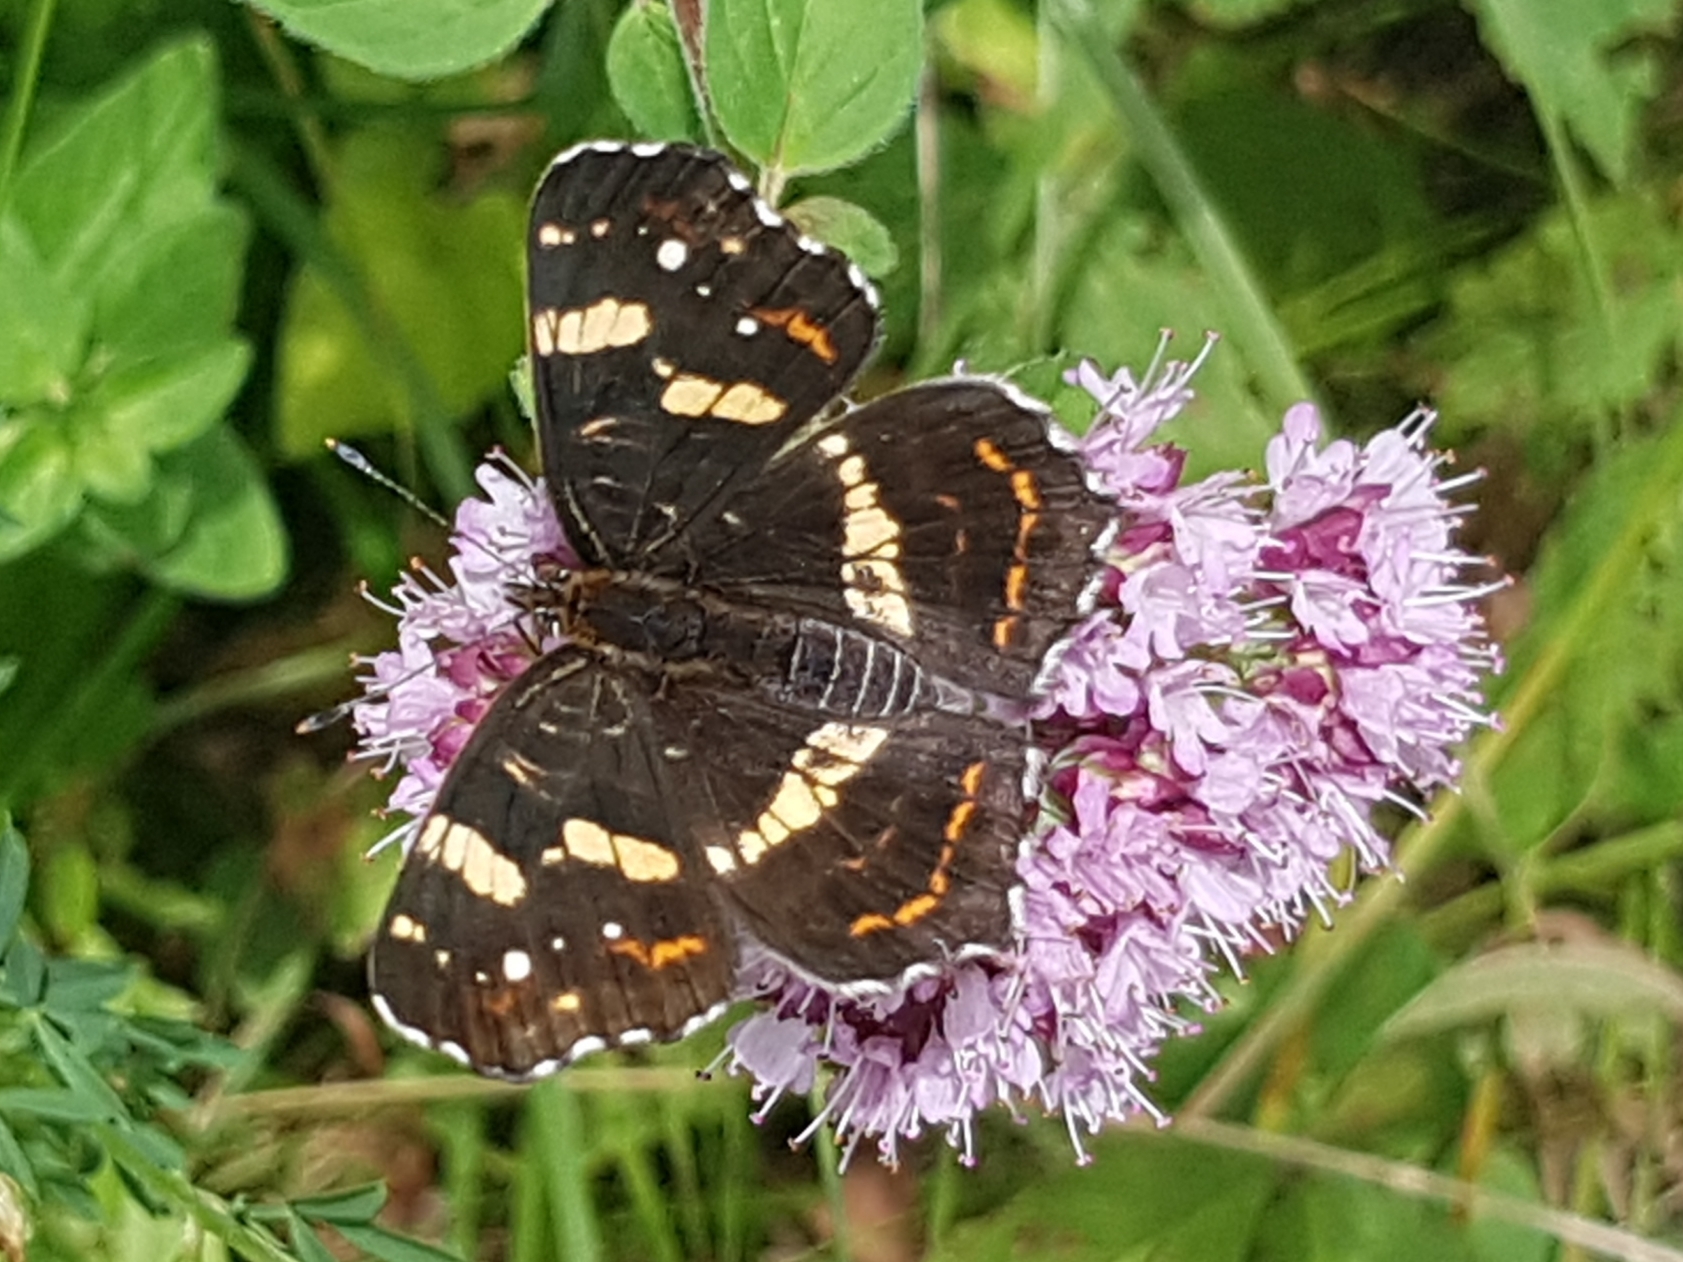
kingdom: Animalia
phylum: Arthropoda
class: Insecta
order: Lepidoptera
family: Nymphalidae
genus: Araschnia
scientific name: Araschnia levana
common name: Map butterfly
